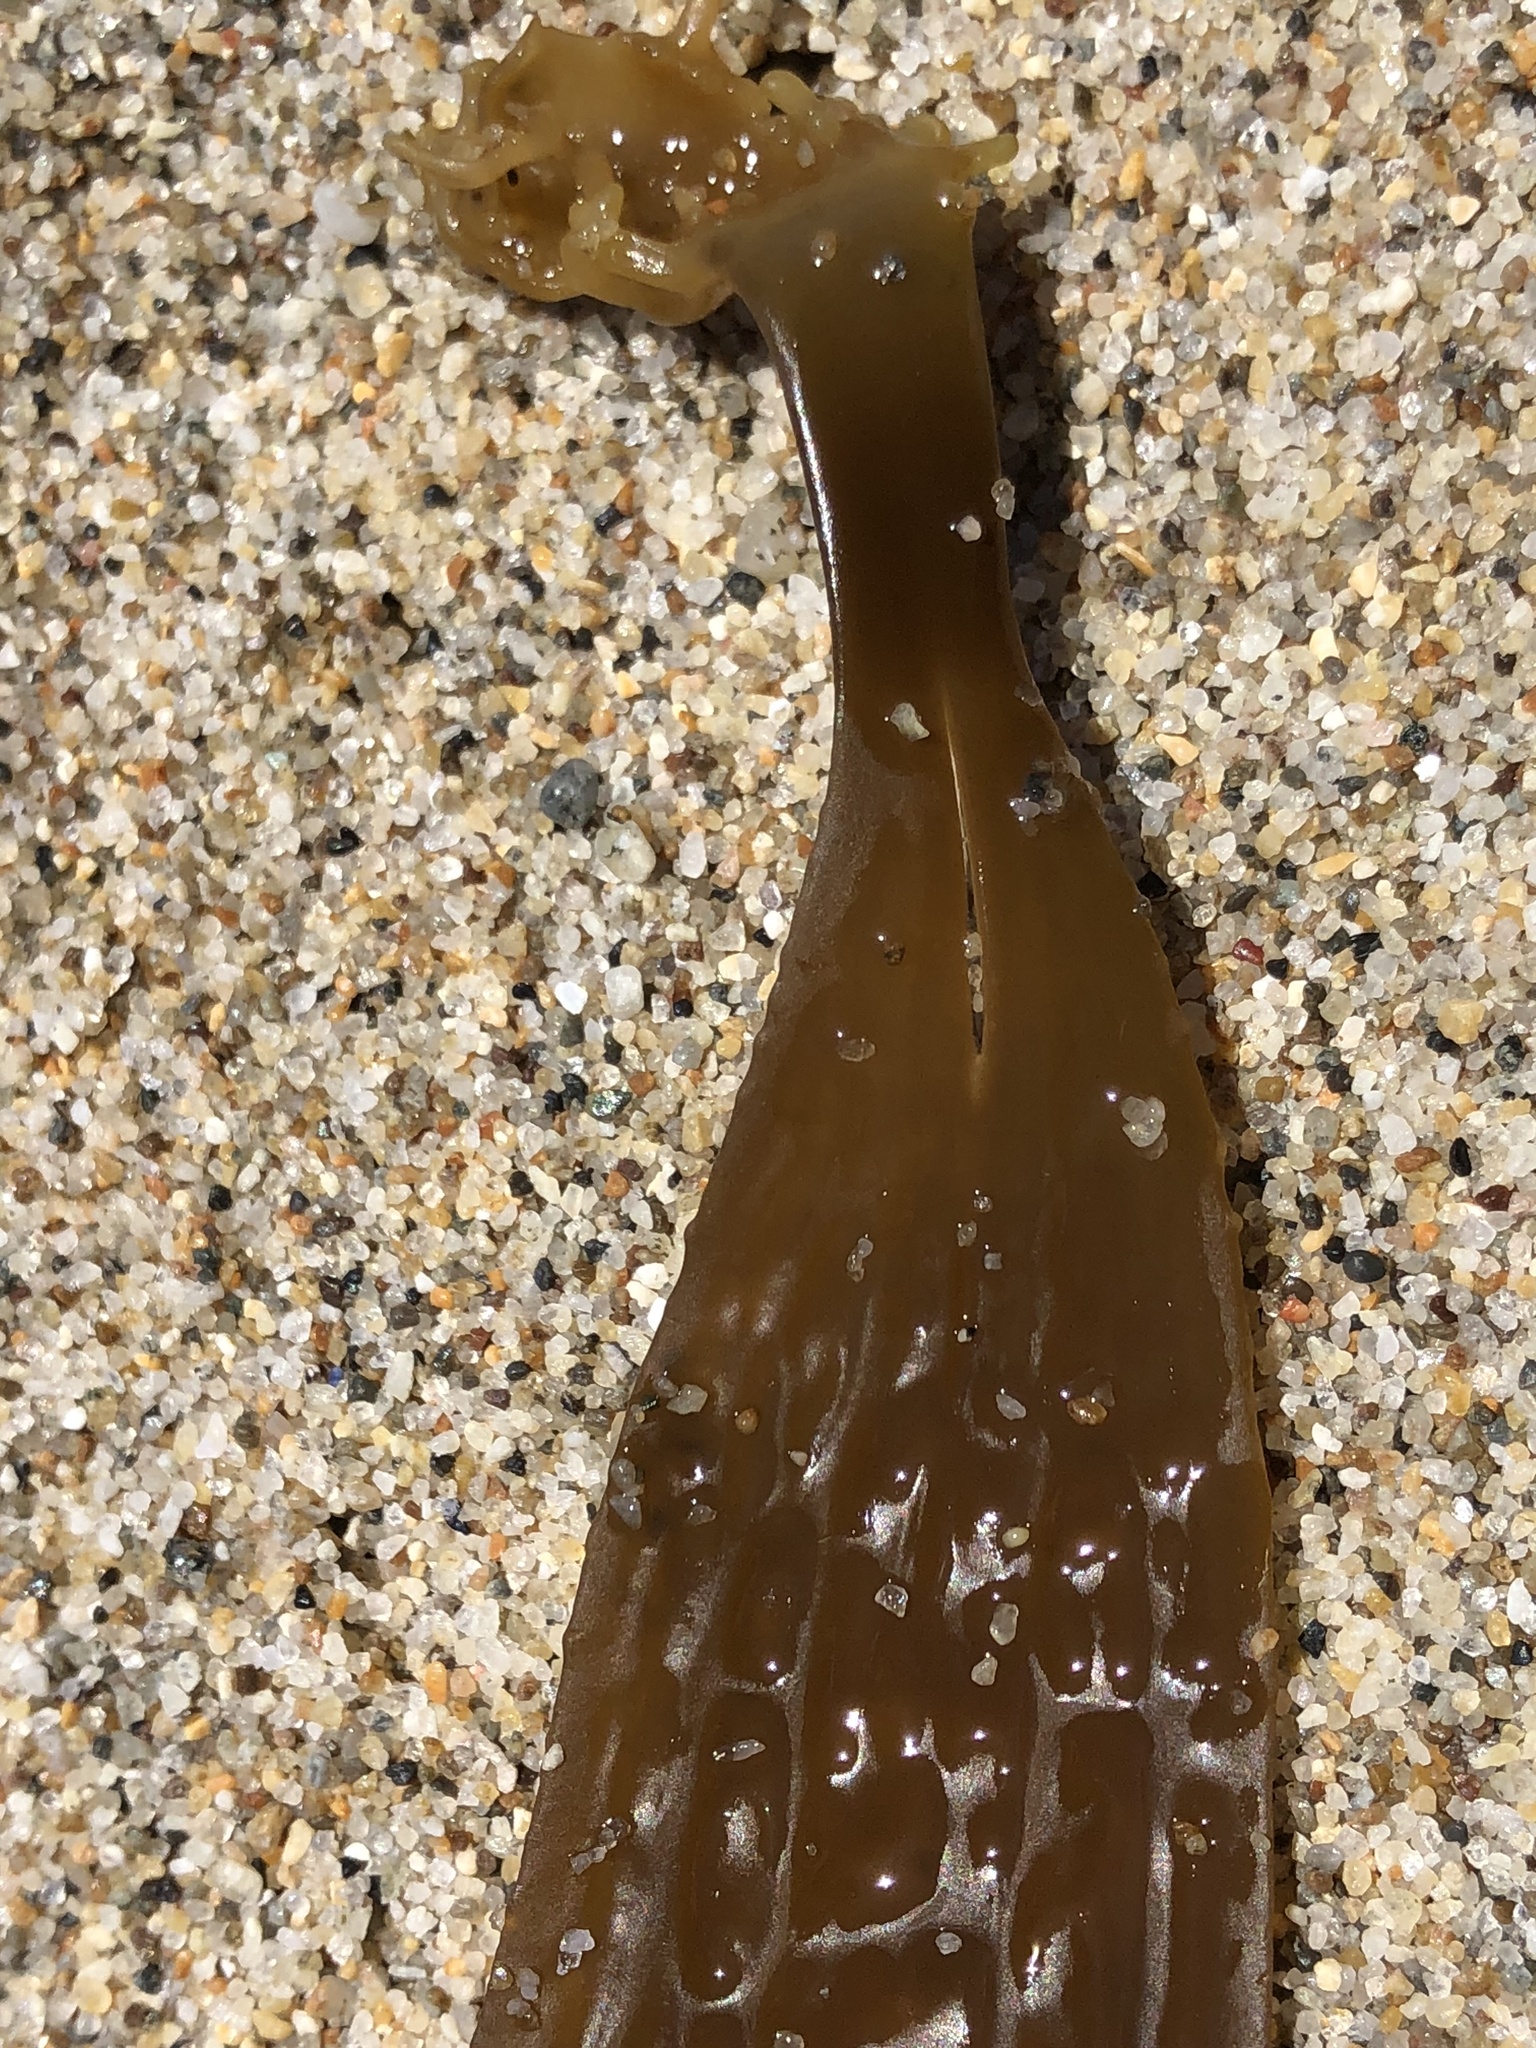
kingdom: Chromista
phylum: Ochrophyta
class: Phaeophyceae
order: Laminariales
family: Costariaceae
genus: Dictyoneurum
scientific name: Dictyoneurum californicum
